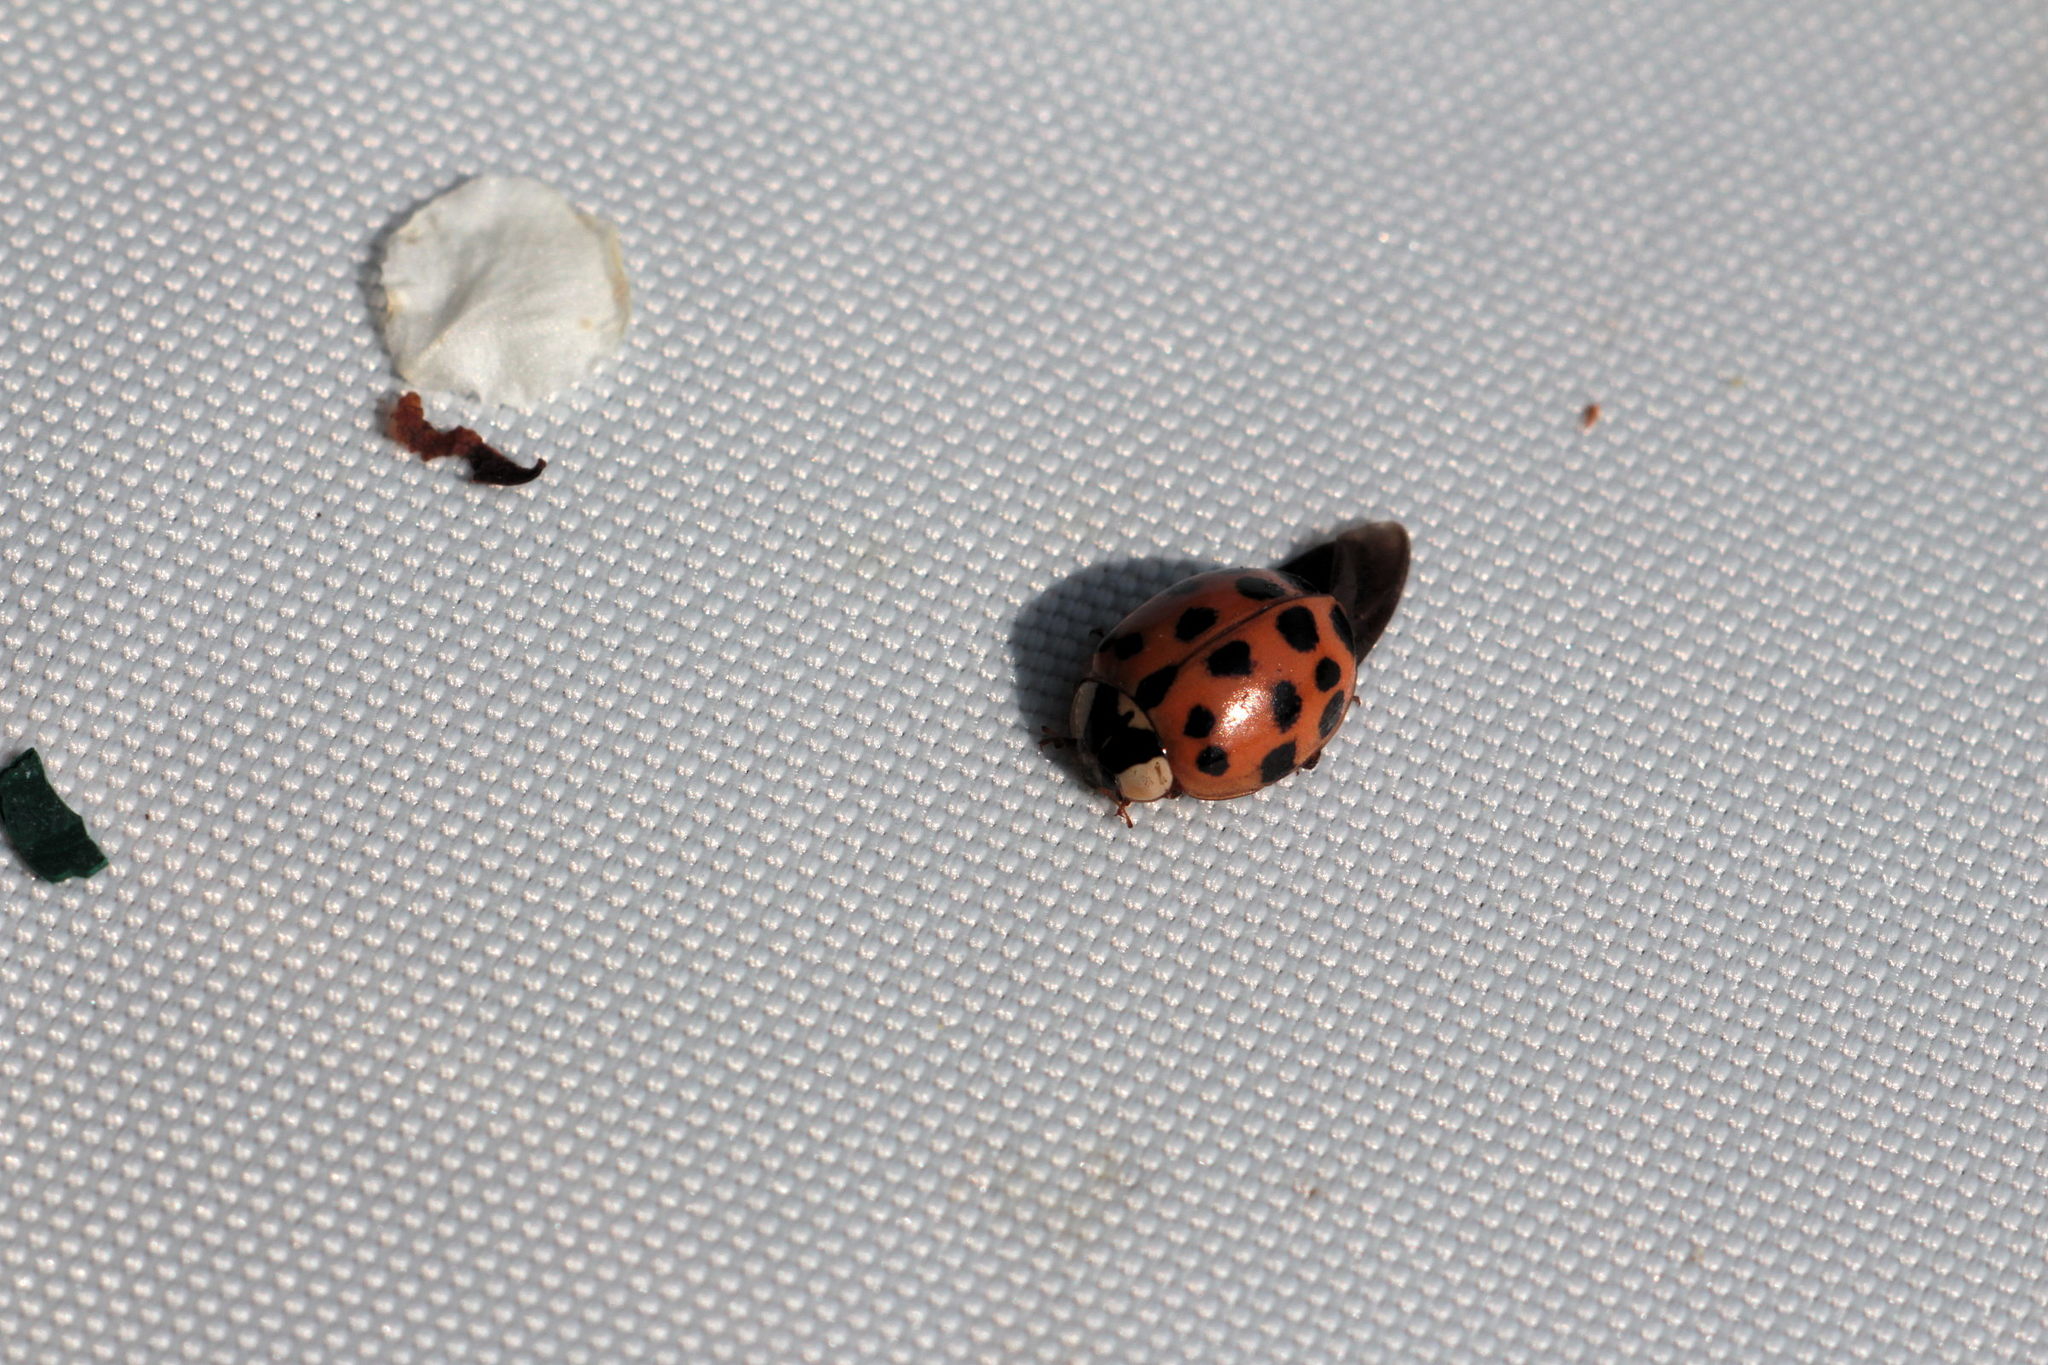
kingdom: Animalia
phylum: Arthropoda
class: Insecta
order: Coleoptera
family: Coccinellidae
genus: Harmonia
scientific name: Harmonia axyridis
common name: Harlequin ladybird
